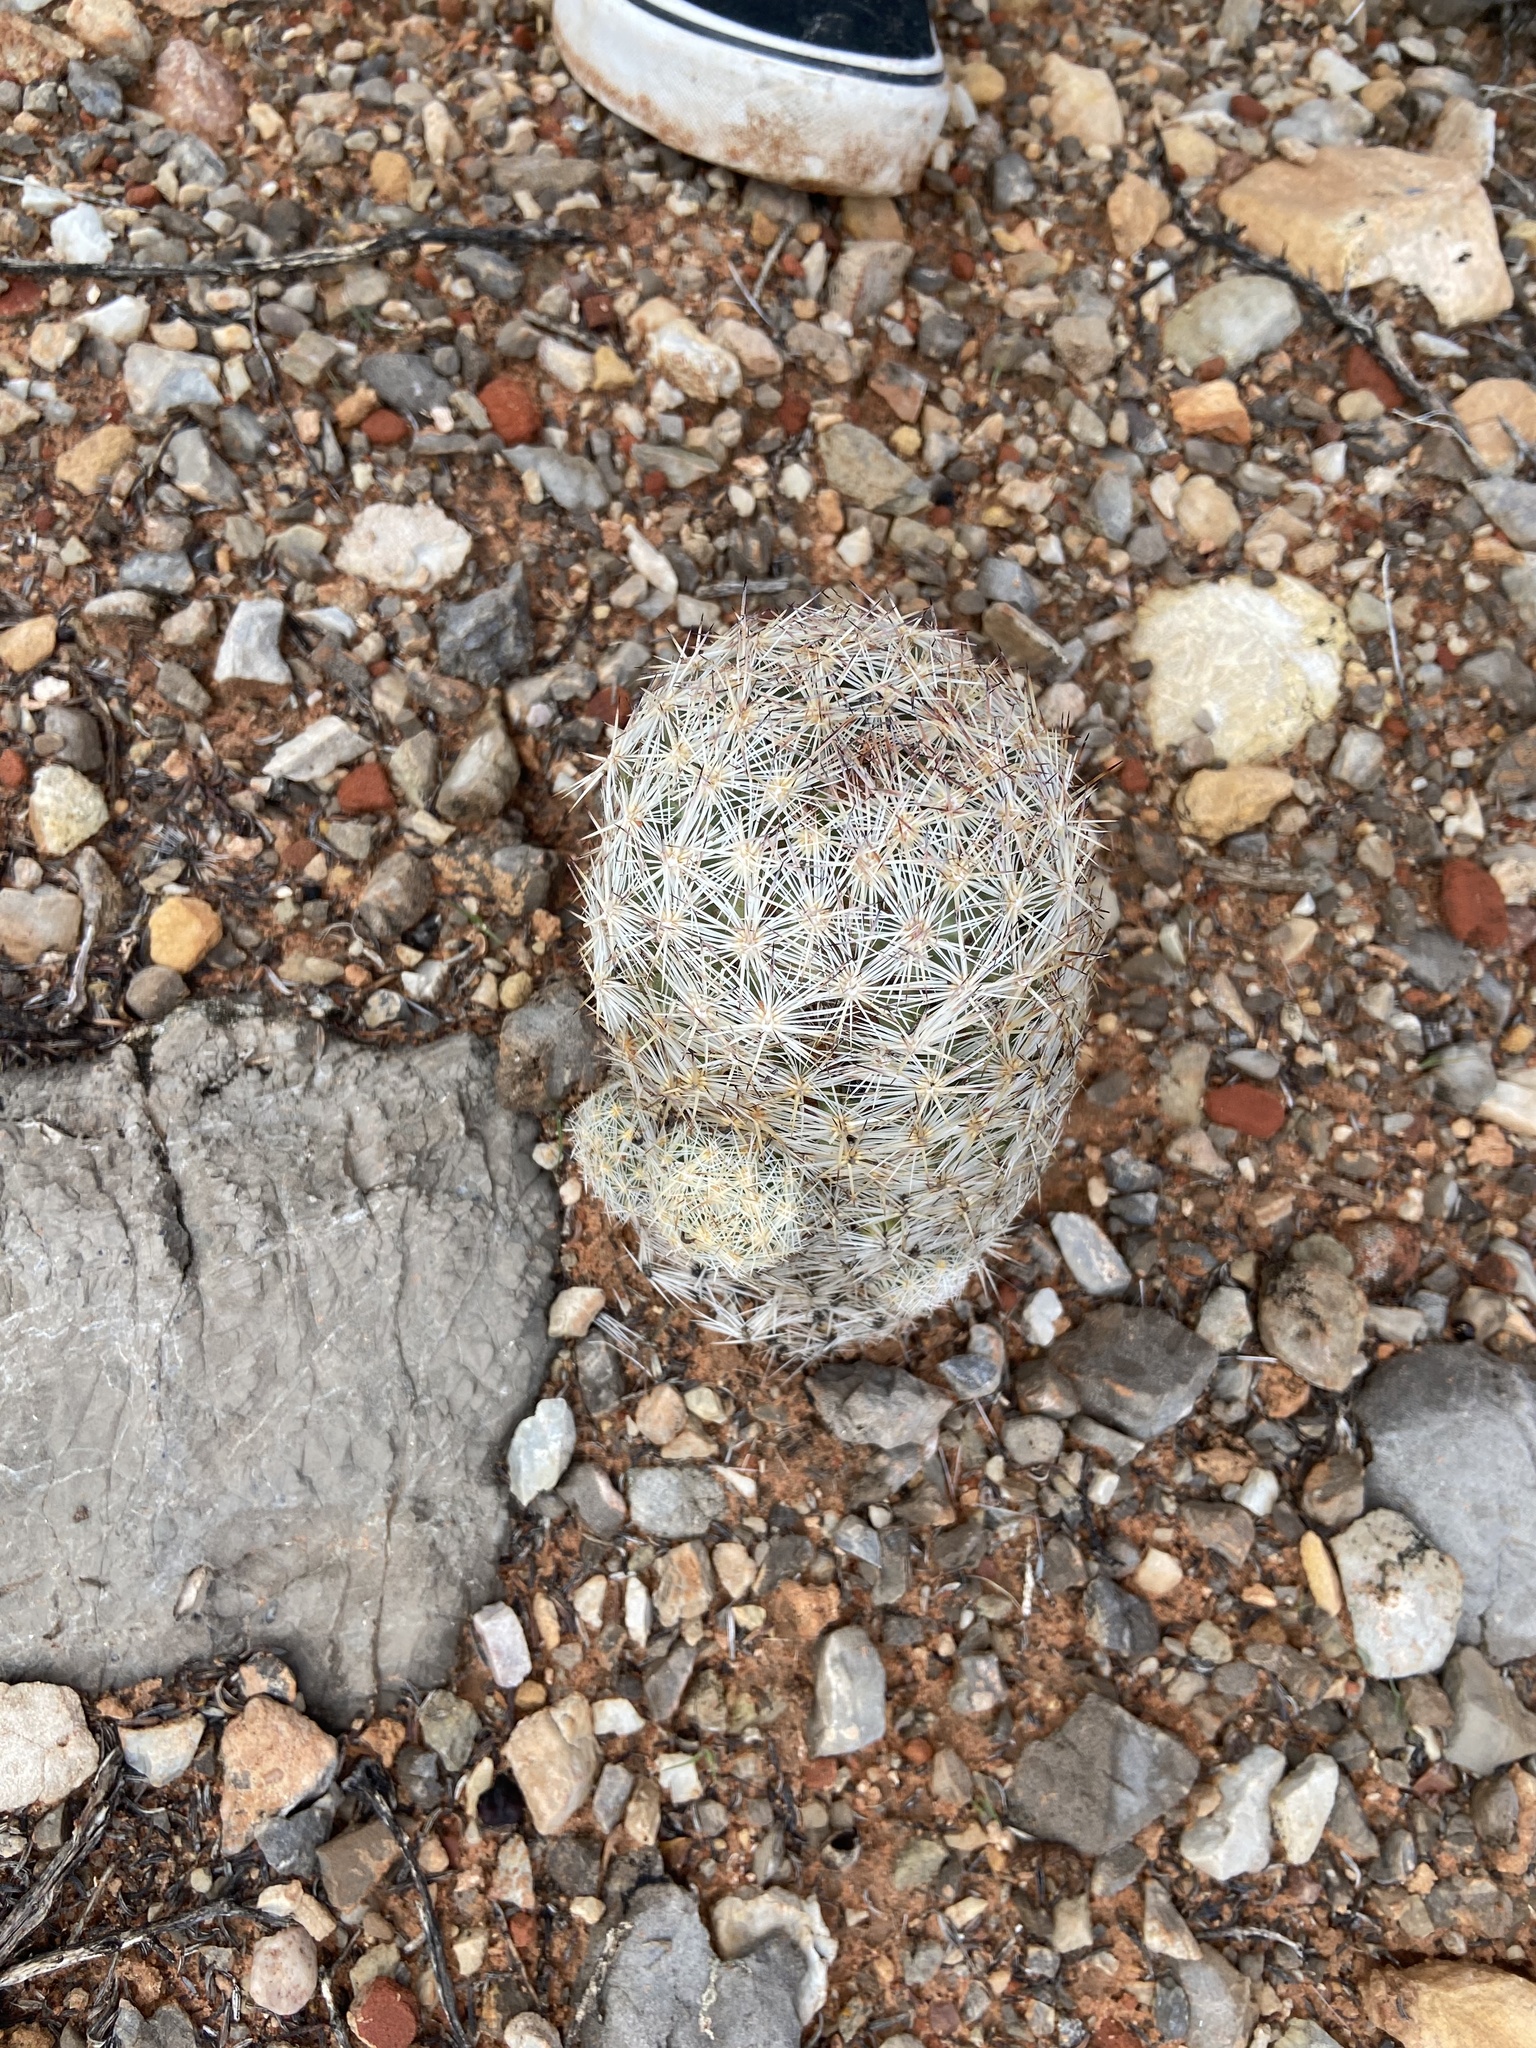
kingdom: Plantae
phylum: Tracheophyta
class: Magnoliopsida
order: Caryophyllales
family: Cactaceae
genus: Pelecyphora
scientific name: Pelecyphora vivipara
